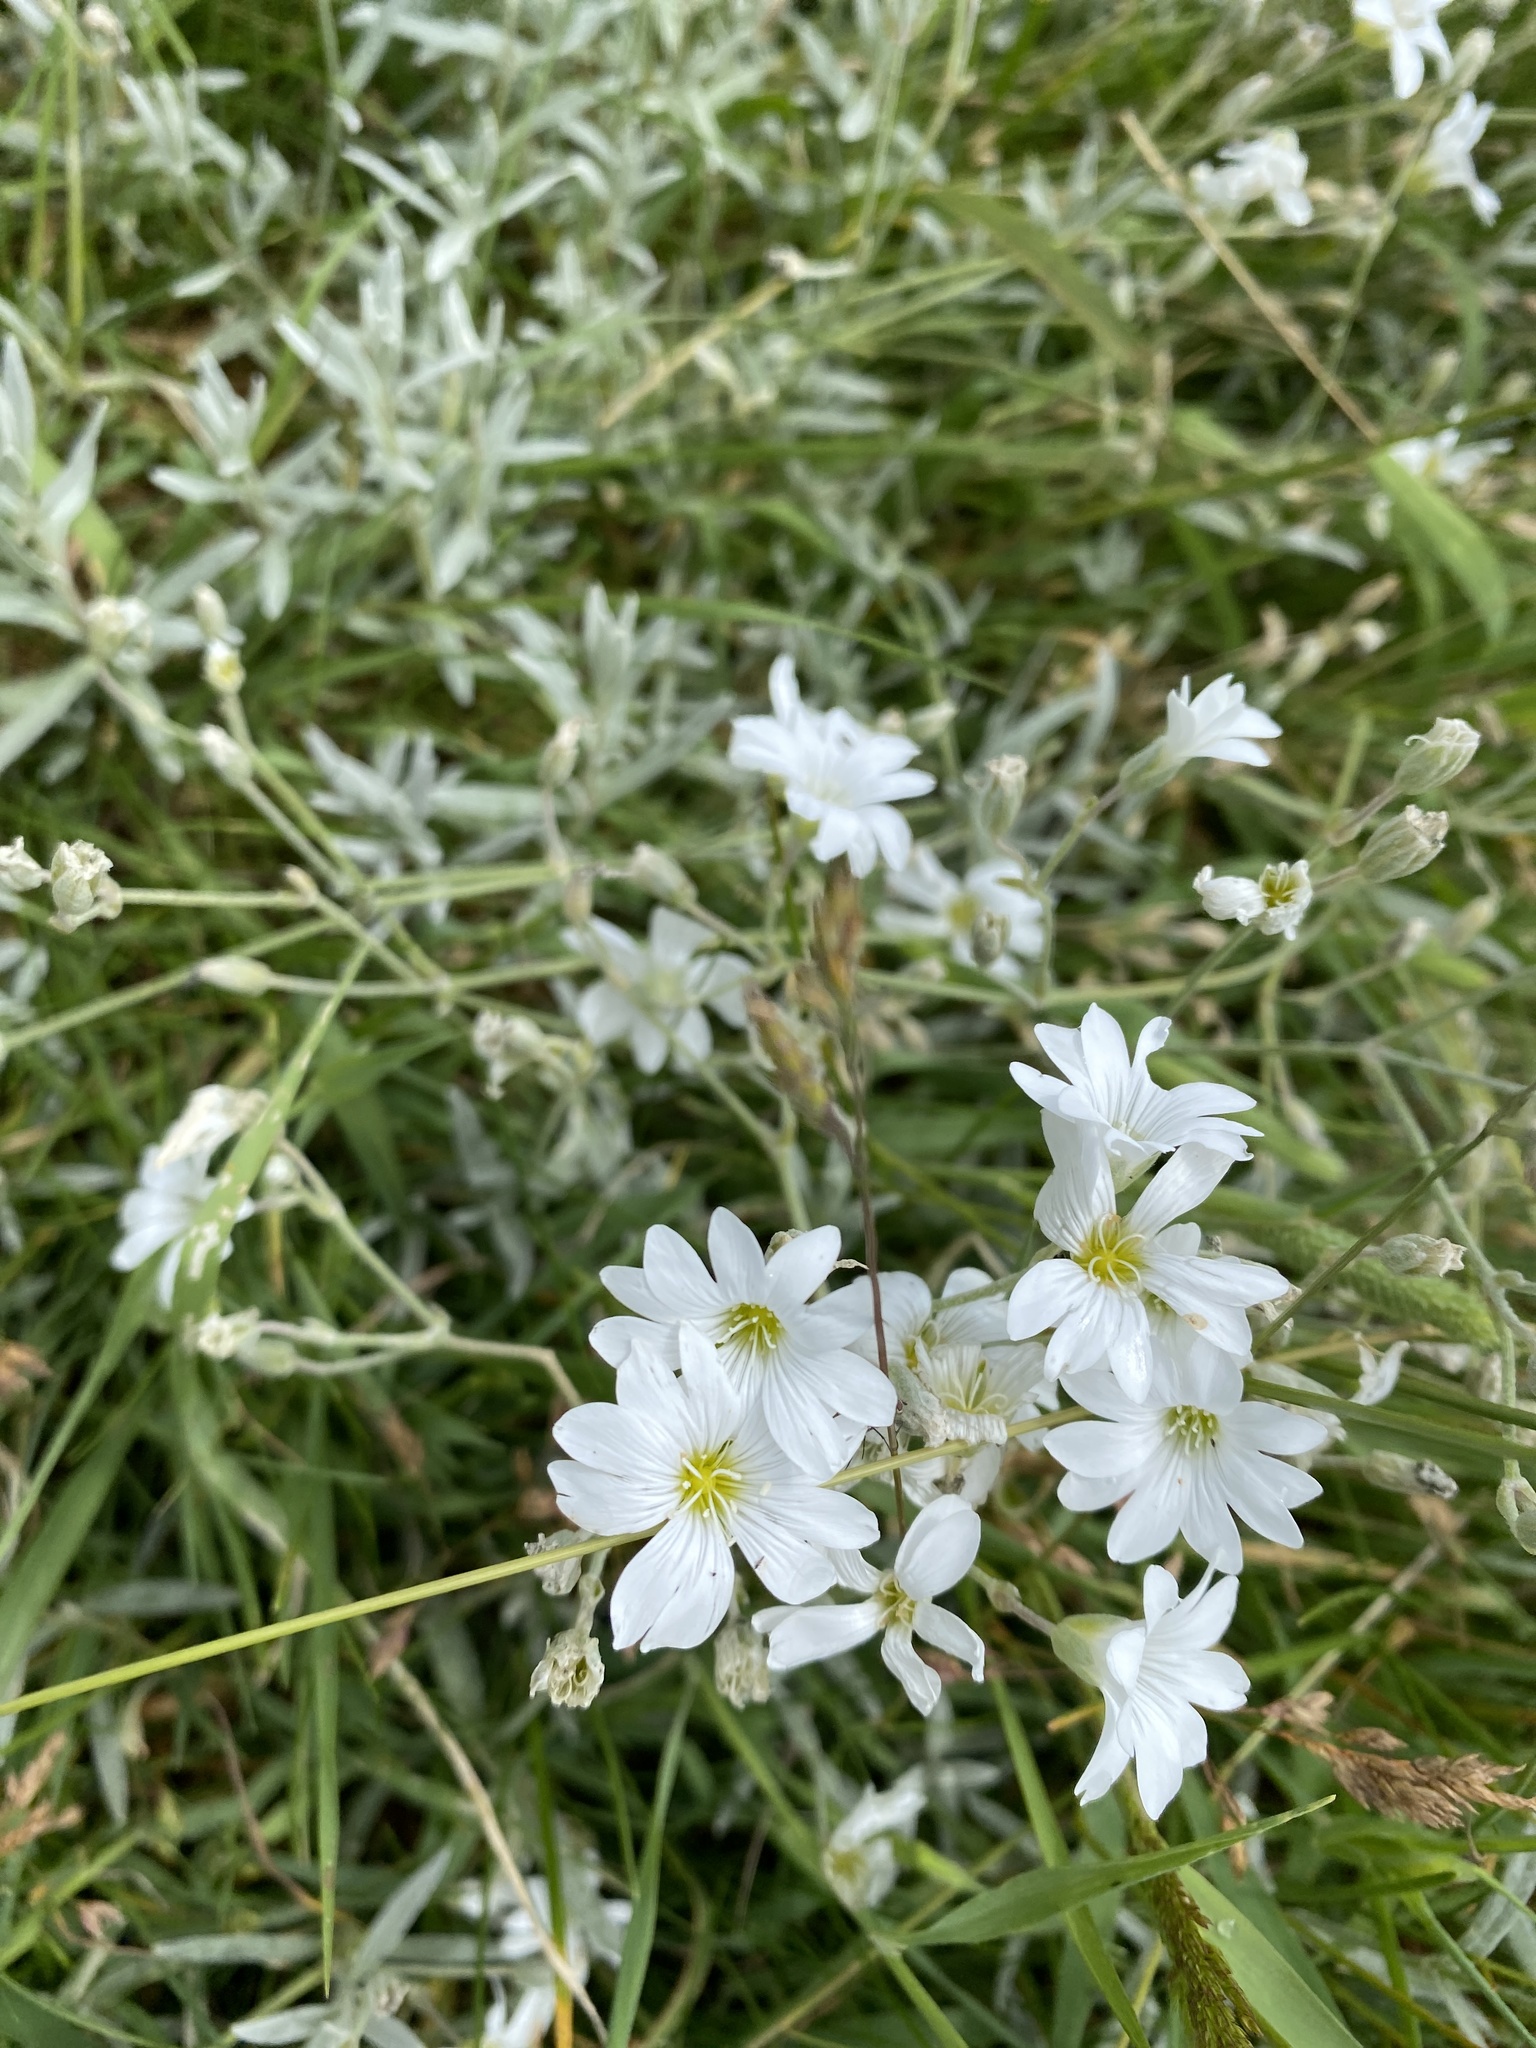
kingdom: Plantae
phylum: Tracheophyta
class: Magnoliopsida
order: Caryophyllales
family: Caryophyllaceae
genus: Cerastium
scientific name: Cerastium tomentosum
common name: Snow-in-summer
